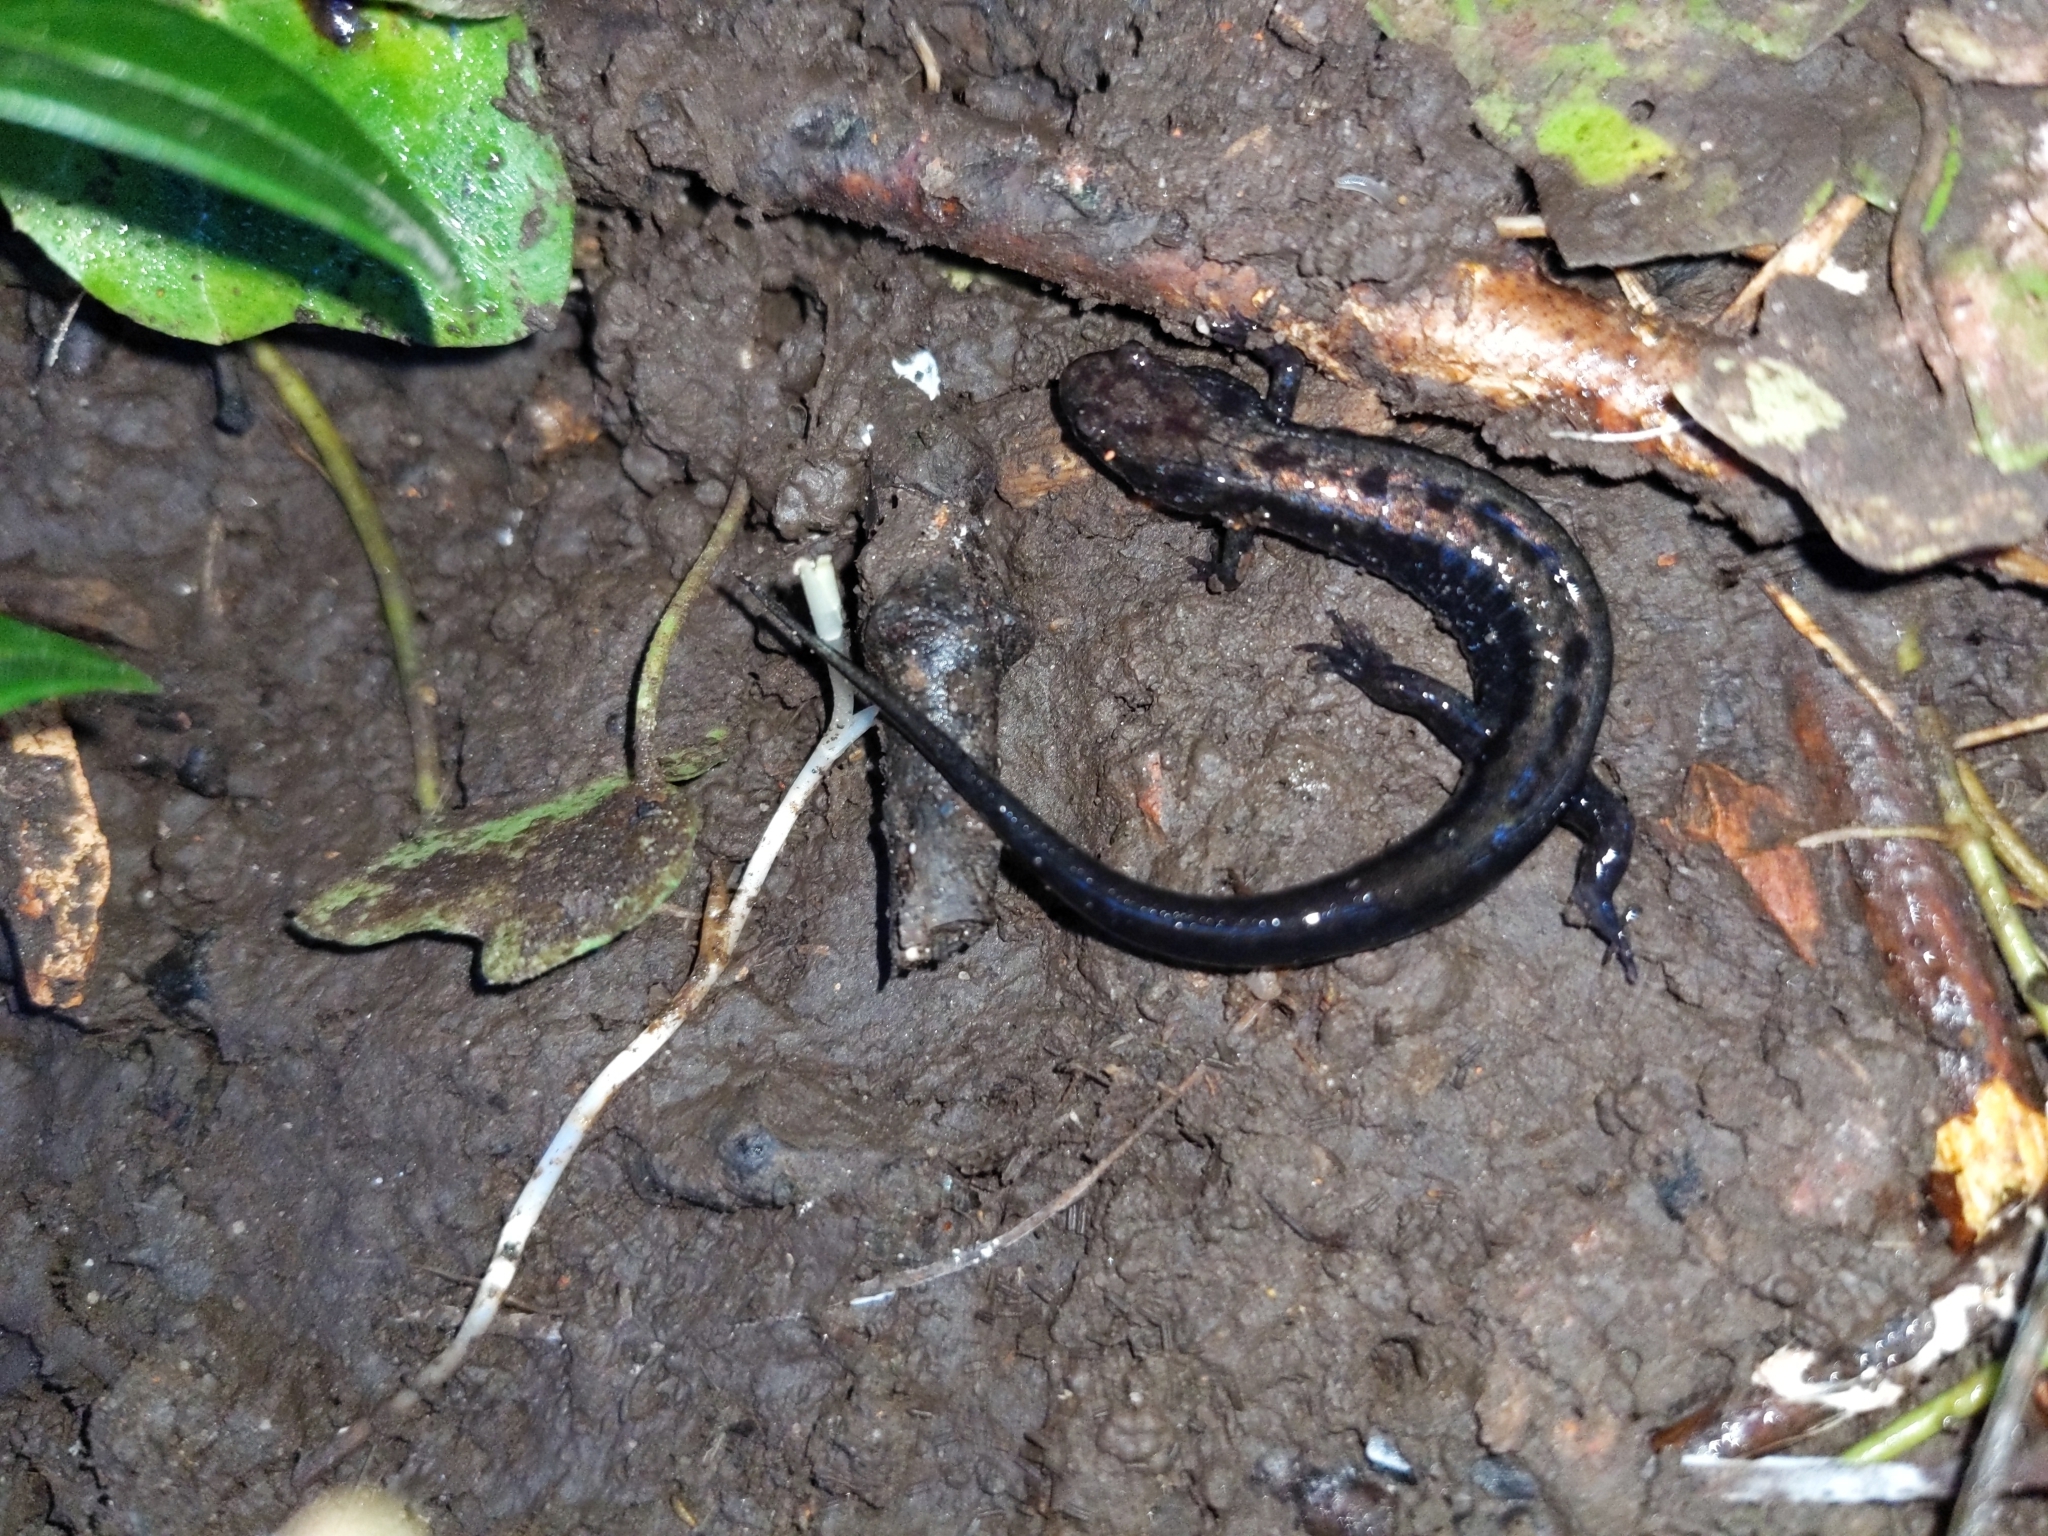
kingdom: Animalia
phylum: Chordata
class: Amphibia
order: Caudata
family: Plethodontidae
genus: Desmognathus
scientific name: Desmognathus ochrophaeus
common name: Allegheny mountain dusky salamander
